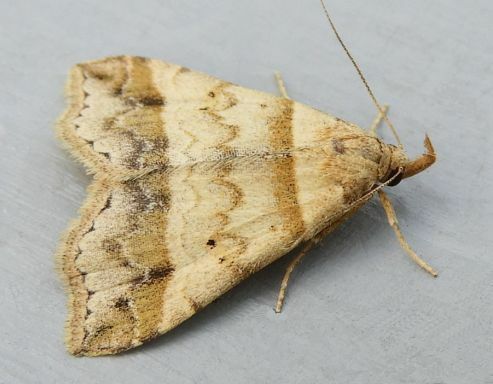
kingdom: Animalia
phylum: Arthropoda
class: Insecta
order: Lepidoptera
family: Erebidae
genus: Phaeolita
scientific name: Phaeolita pyramusalis
